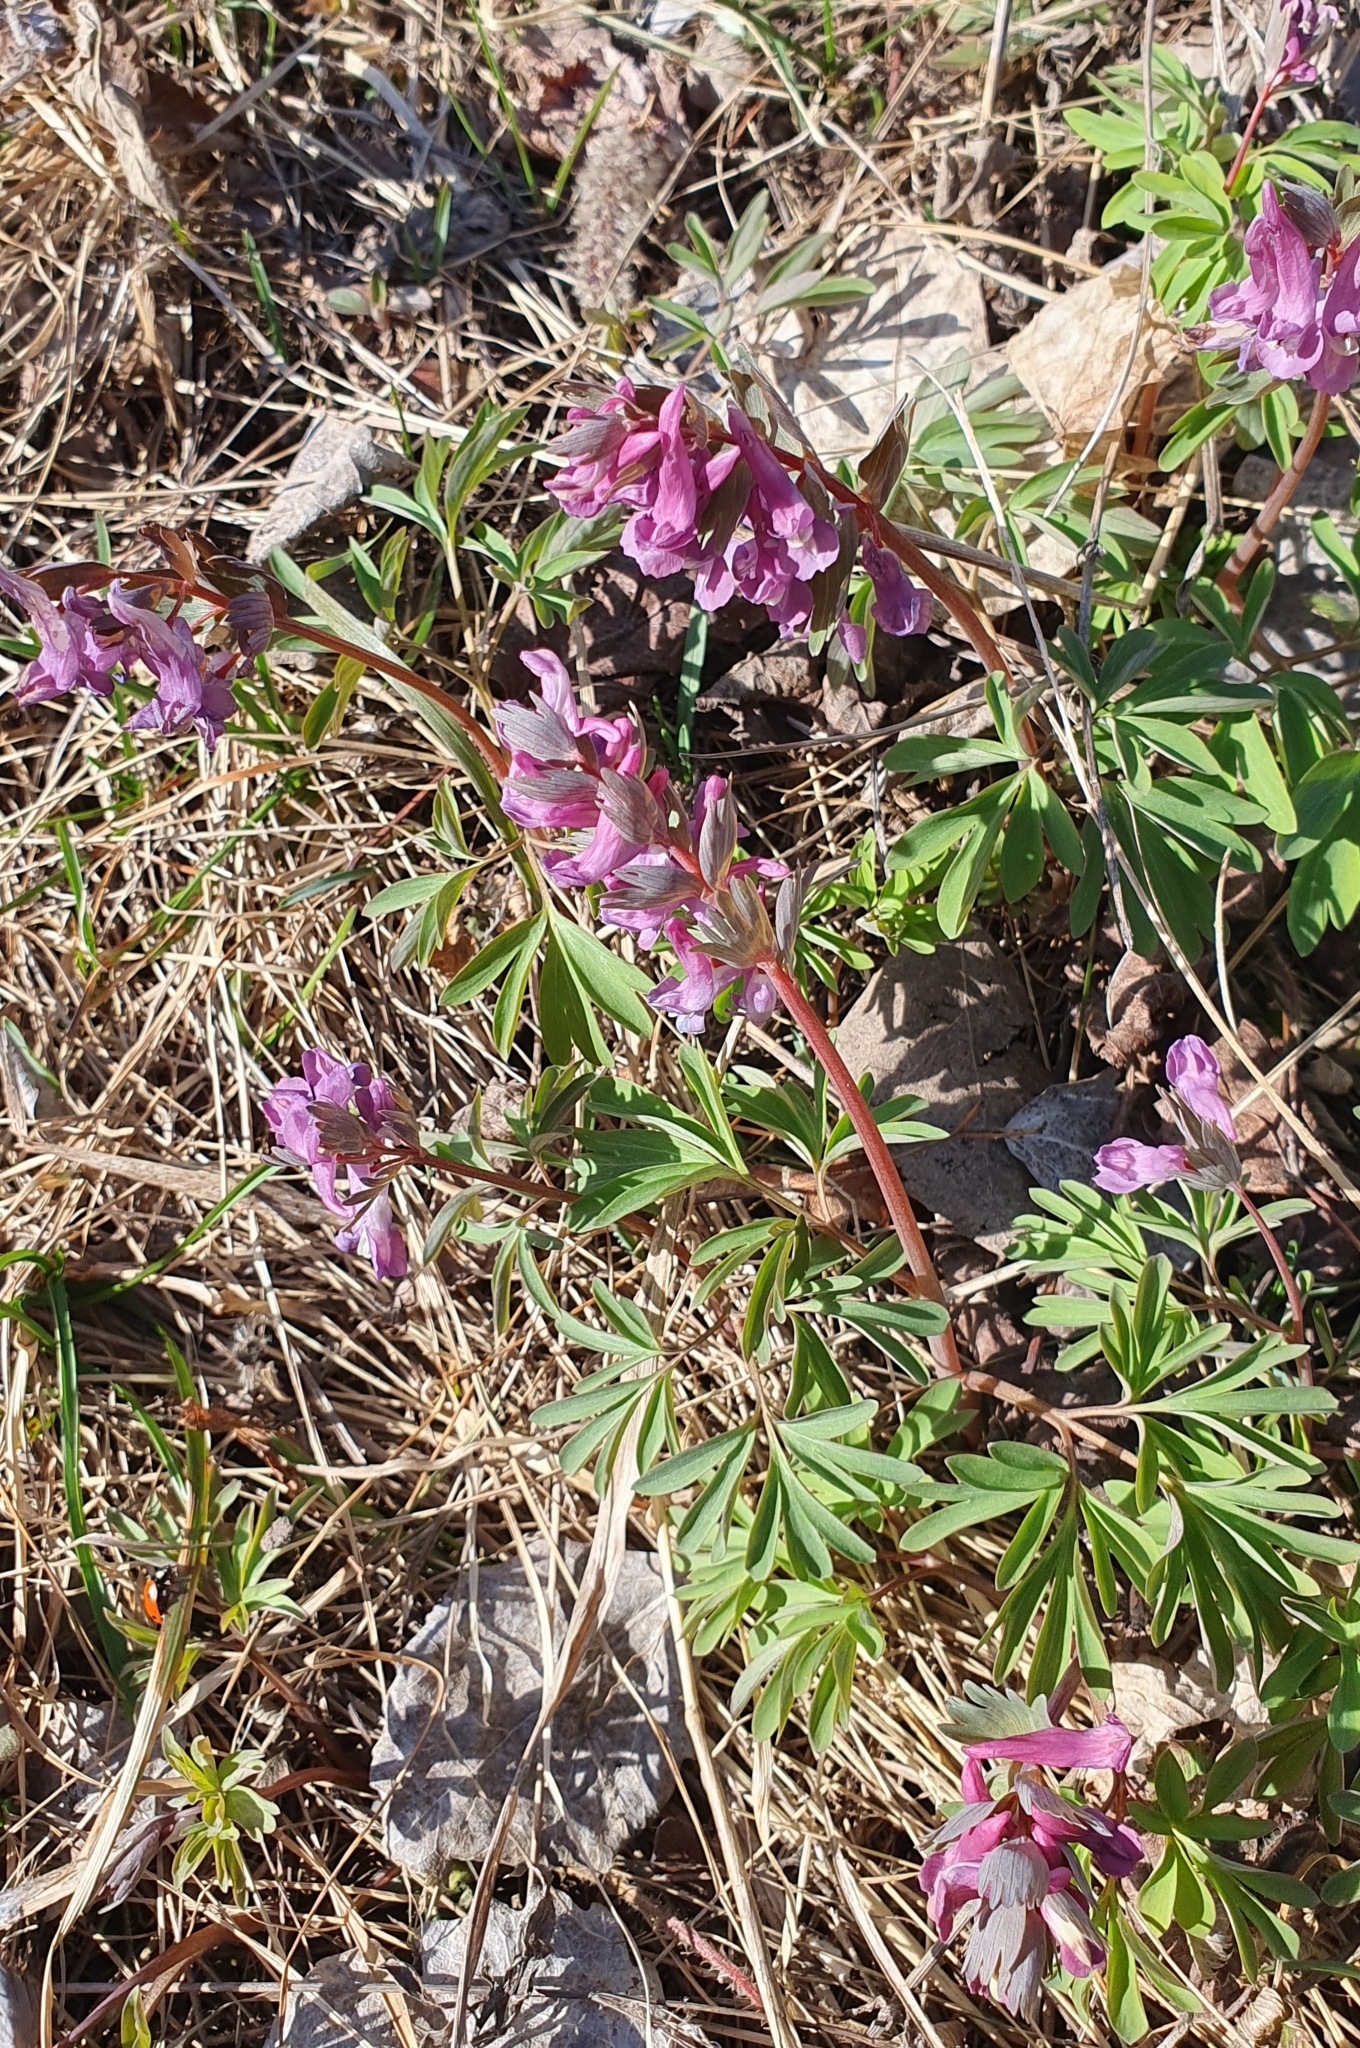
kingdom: Plantae
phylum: Tracheophyta
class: Magnoliopsida
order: Ranunculales
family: Papaveraceae
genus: Corydalis
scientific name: Corydalis solida
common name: Bird-in-a-bush
